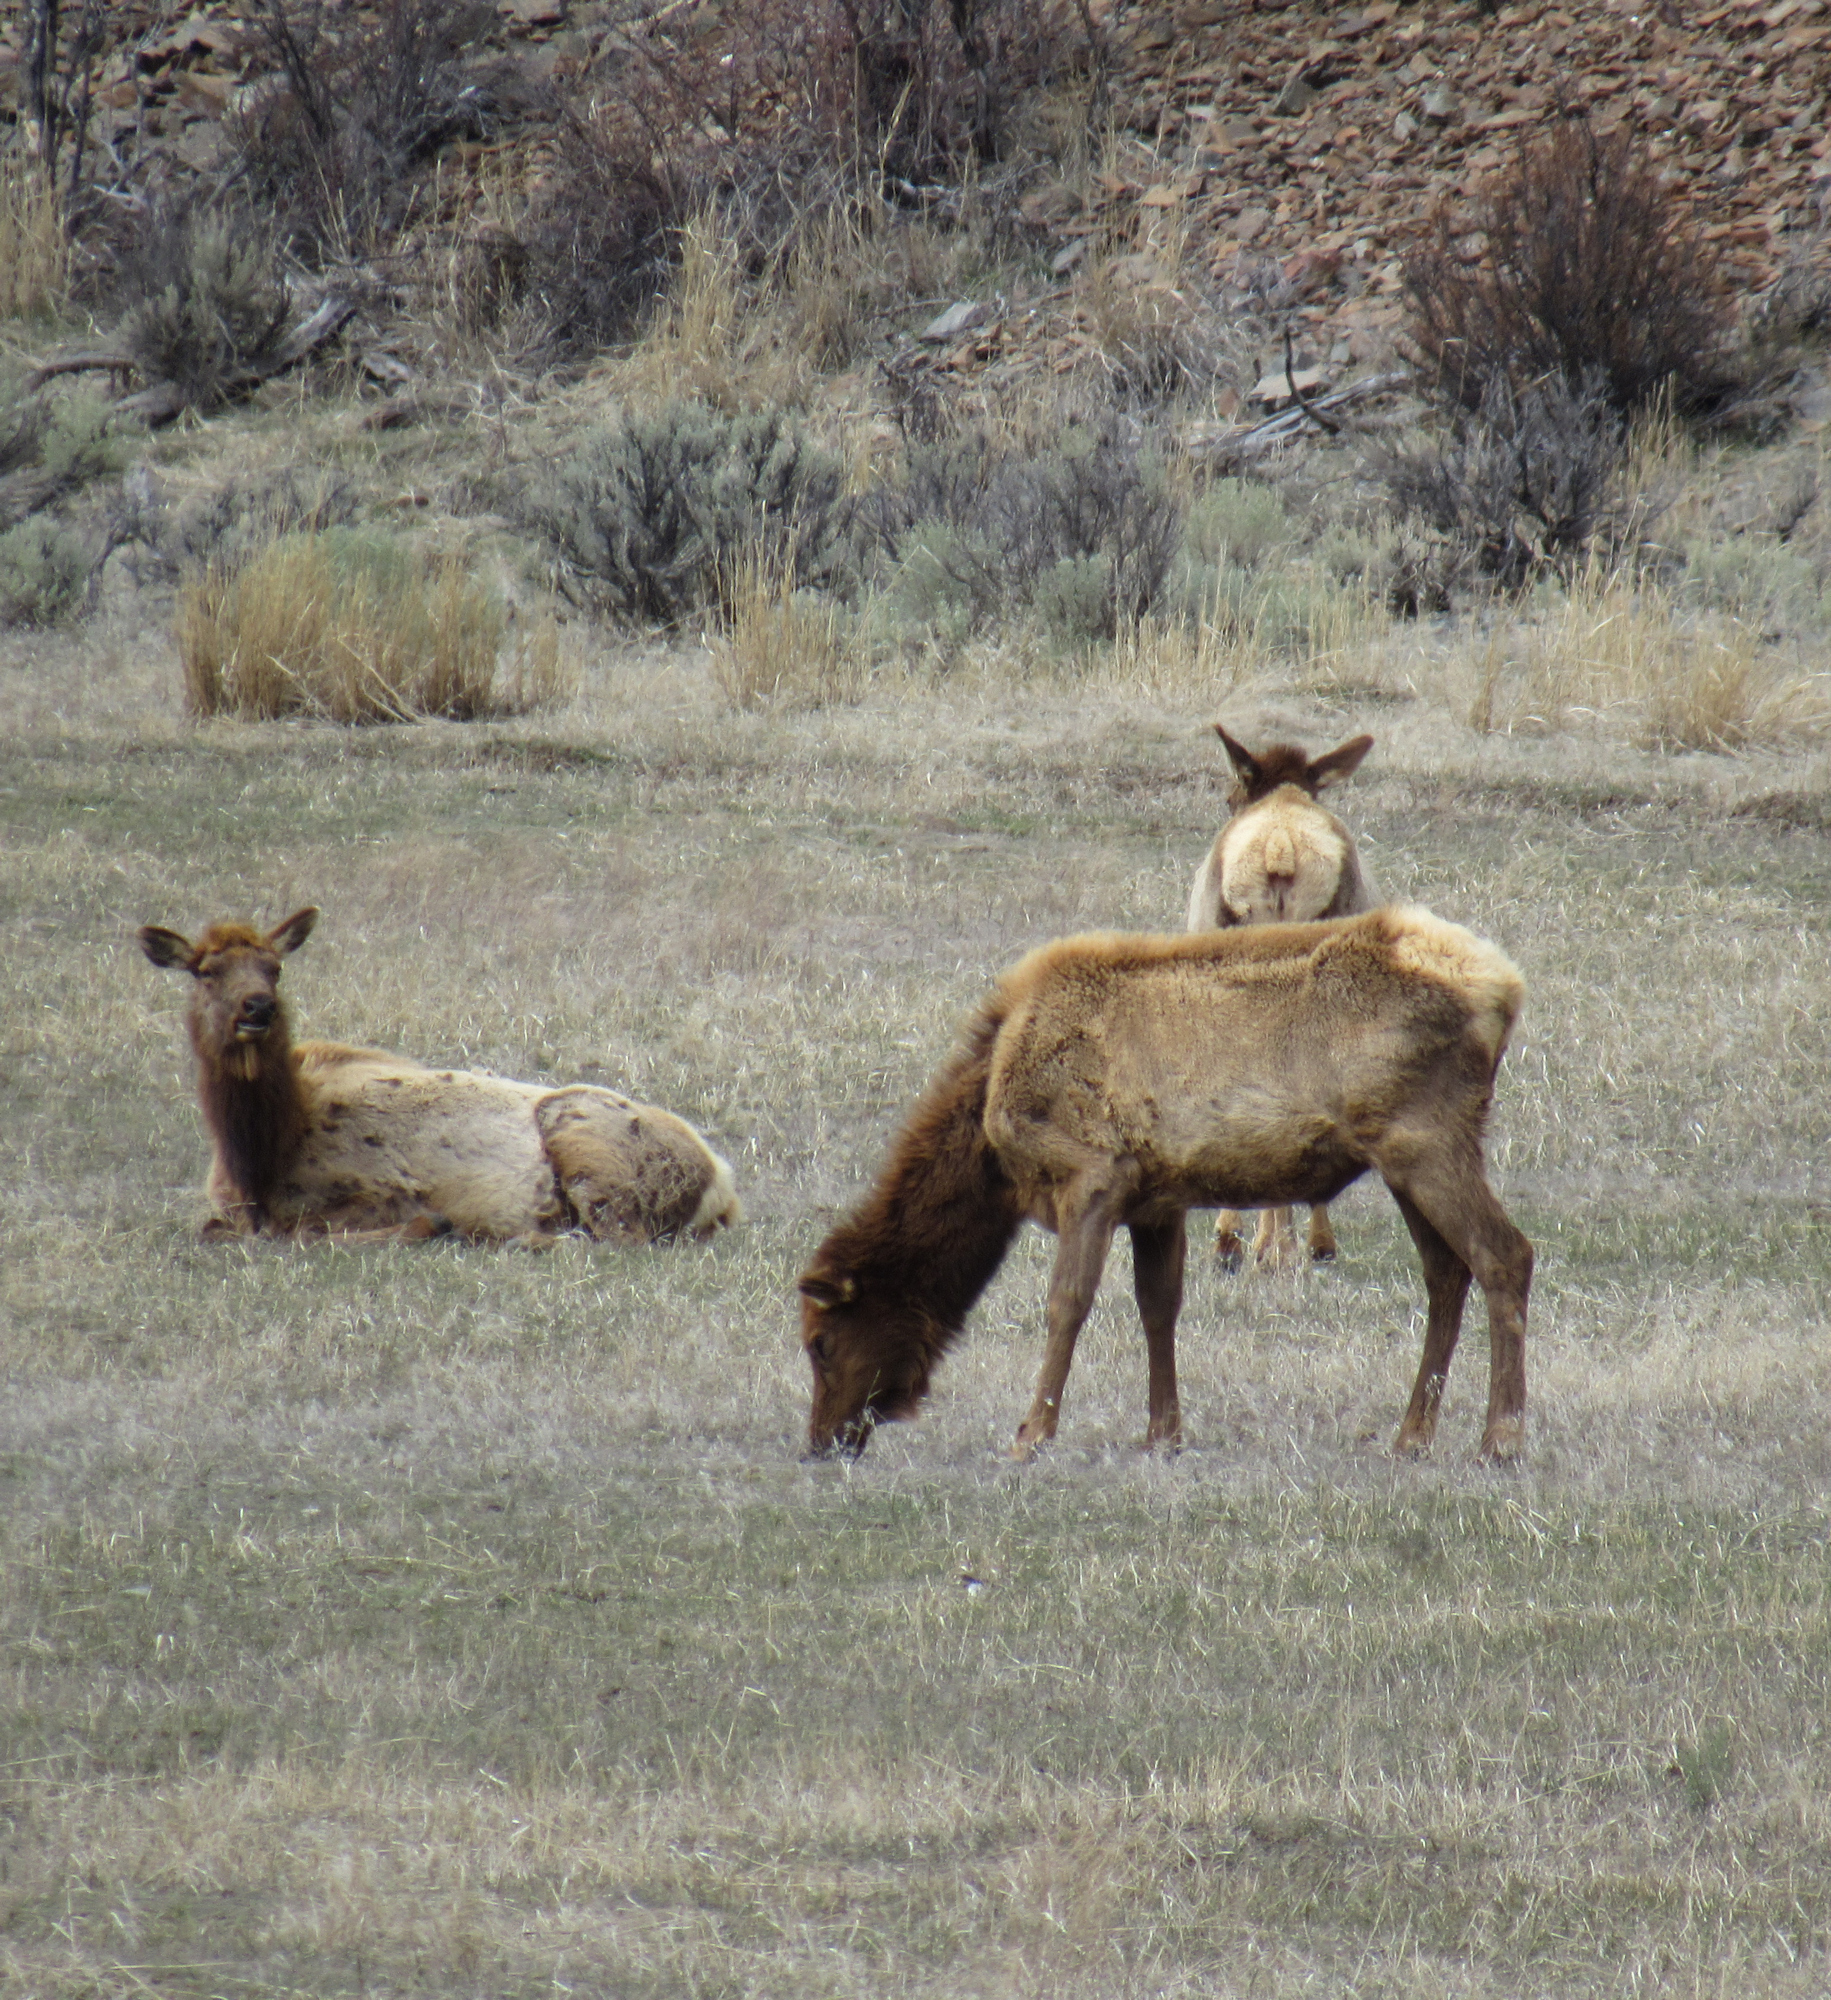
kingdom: Animalia
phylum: Chordata
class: Mammalia
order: Artiodactyla
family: Cervidae
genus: Cervus
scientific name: Cervus elaphus
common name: Red deer
